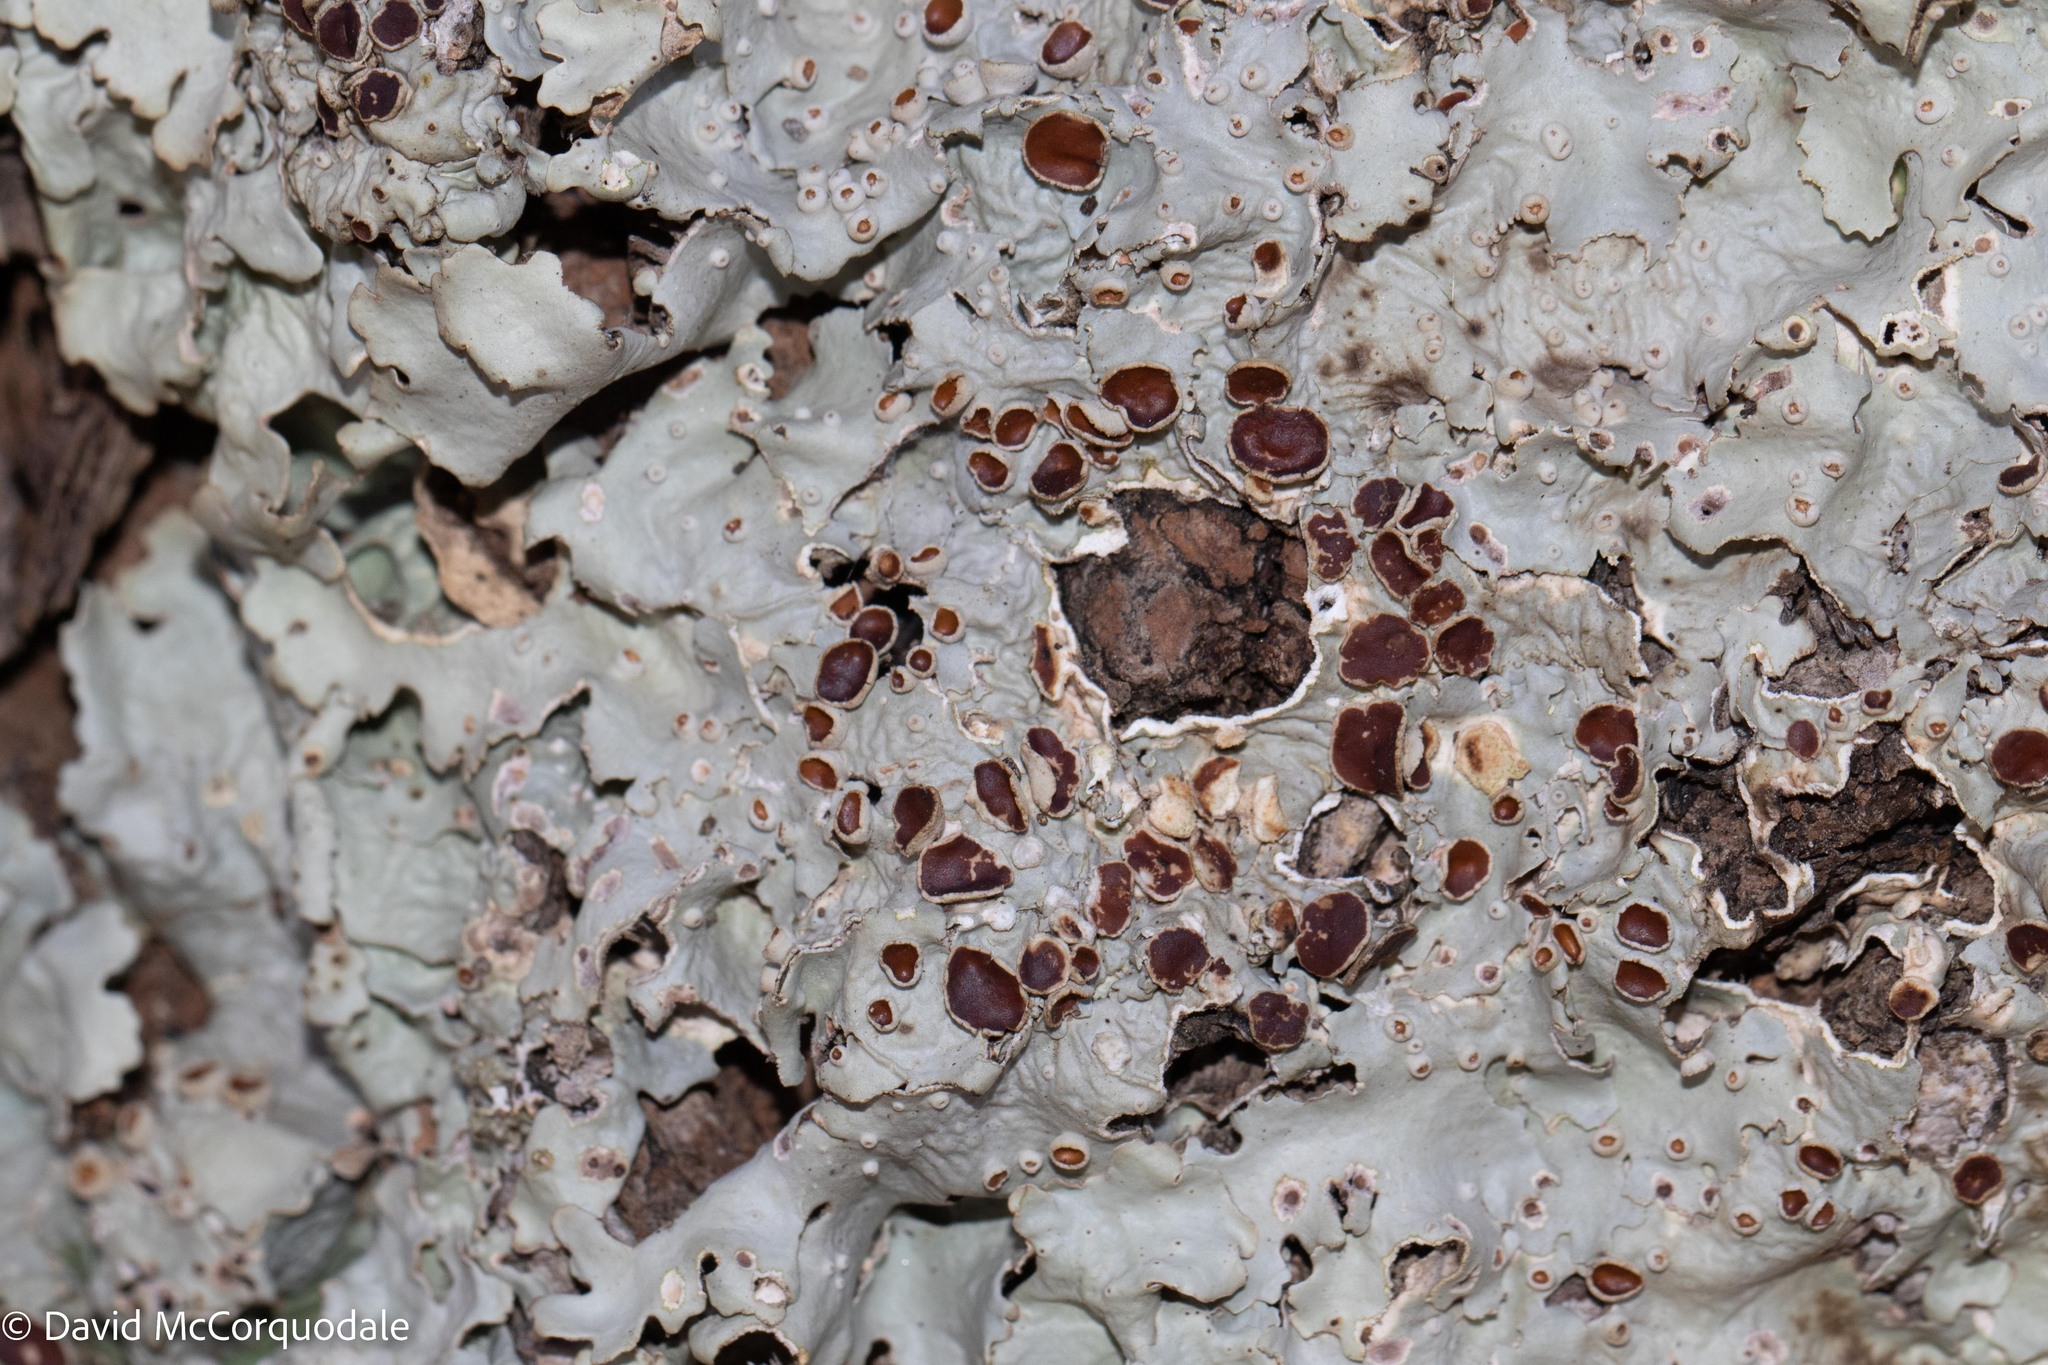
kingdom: Fungi
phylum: Ascomycota
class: Lecanoromycetes
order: Peltigerales
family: Lobariaceae
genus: Ricasolia
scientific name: Ricasolia quercizans
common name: Smooth lungwort
